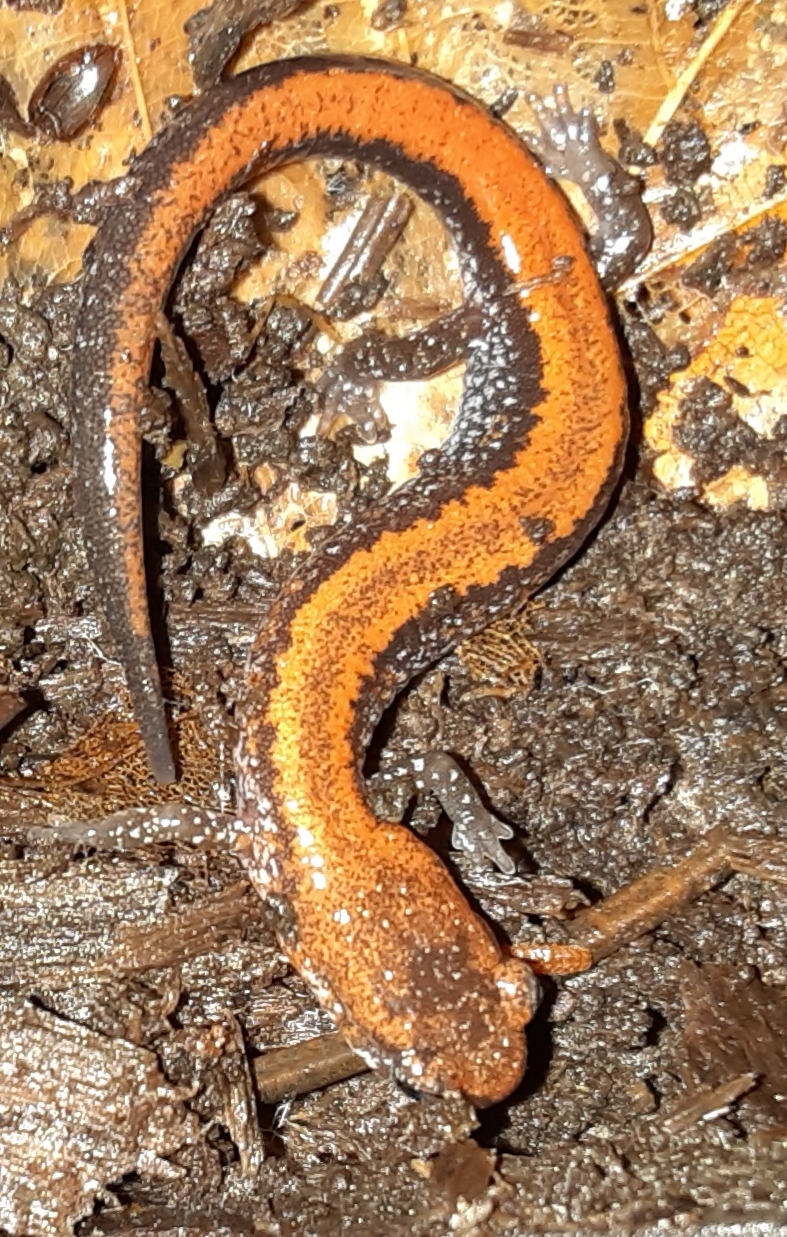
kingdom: Animalia
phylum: Chordata
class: Amphibia
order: Caudata
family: Plethodontidae
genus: Plethodon
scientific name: Plethodon cinereus
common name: Redback salamander
